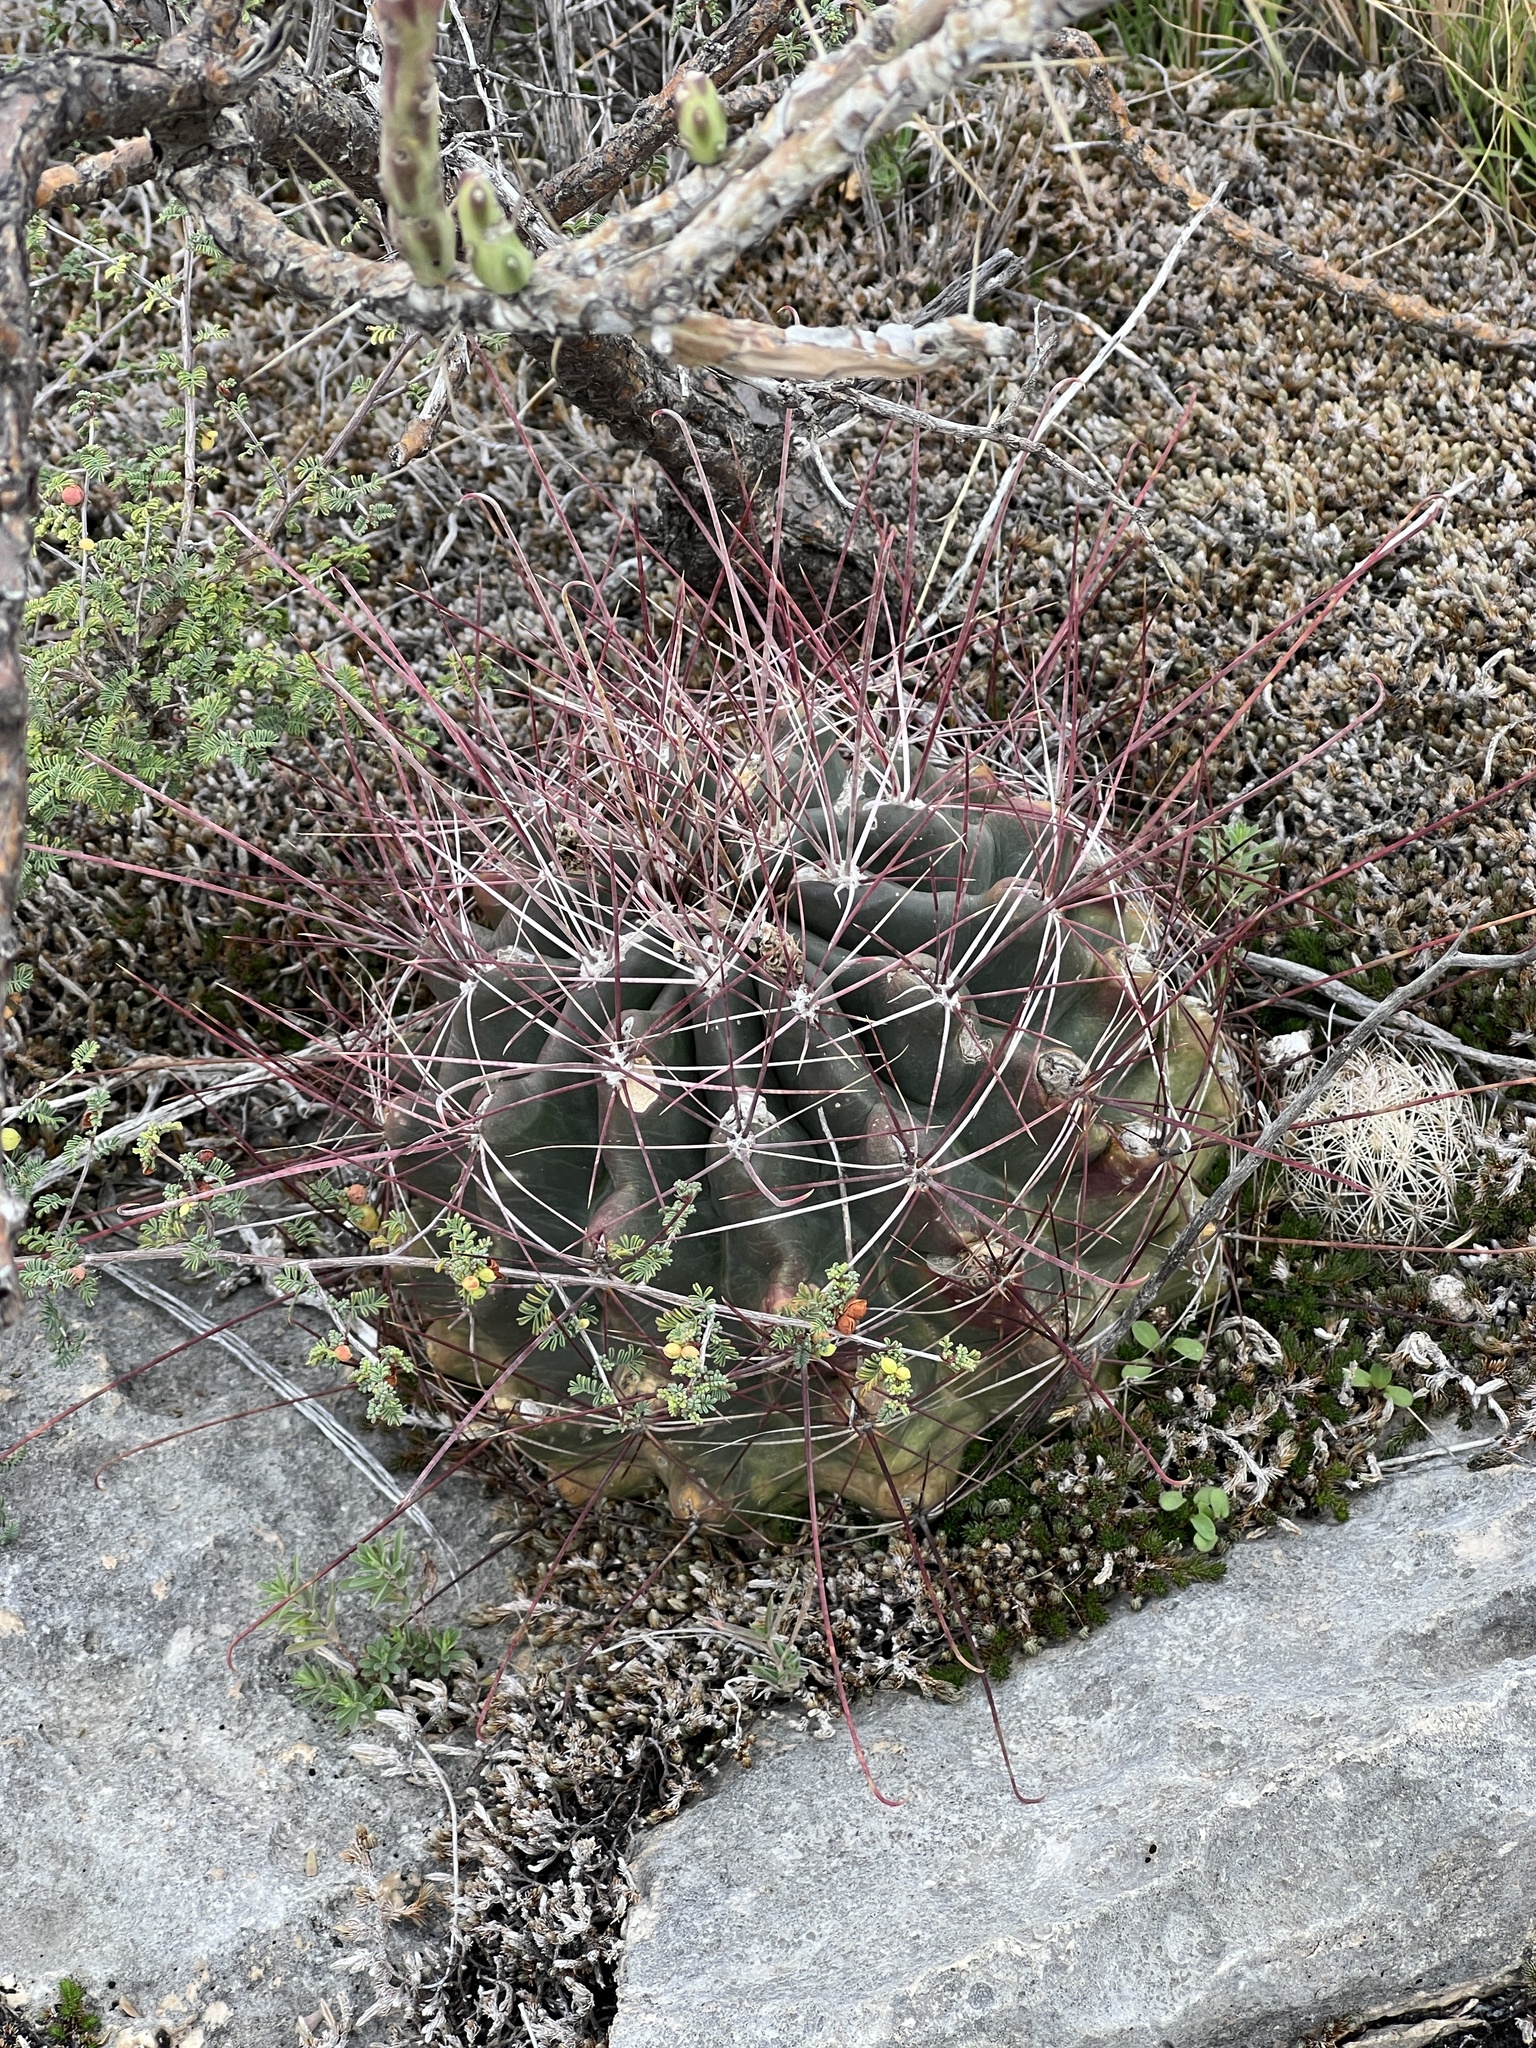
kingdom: Plantae
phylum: Tracheophyta
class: Magnoliopsida
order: Caryophyllales
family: Cactaceae
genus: Bisnaga
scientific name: Bisnaga hamatacantha
